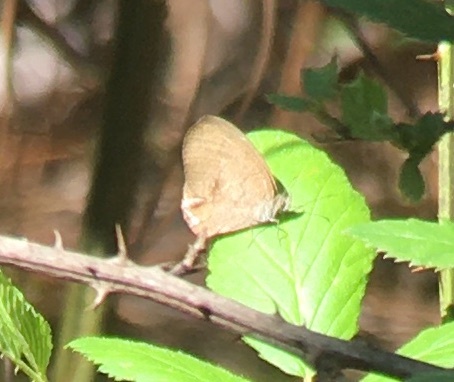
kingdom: Animalia
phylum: Arthropoda
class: Insecta
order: Lepidoptera
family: Nymphalidae
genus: Euptychia
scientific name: Euptychia cornelius
